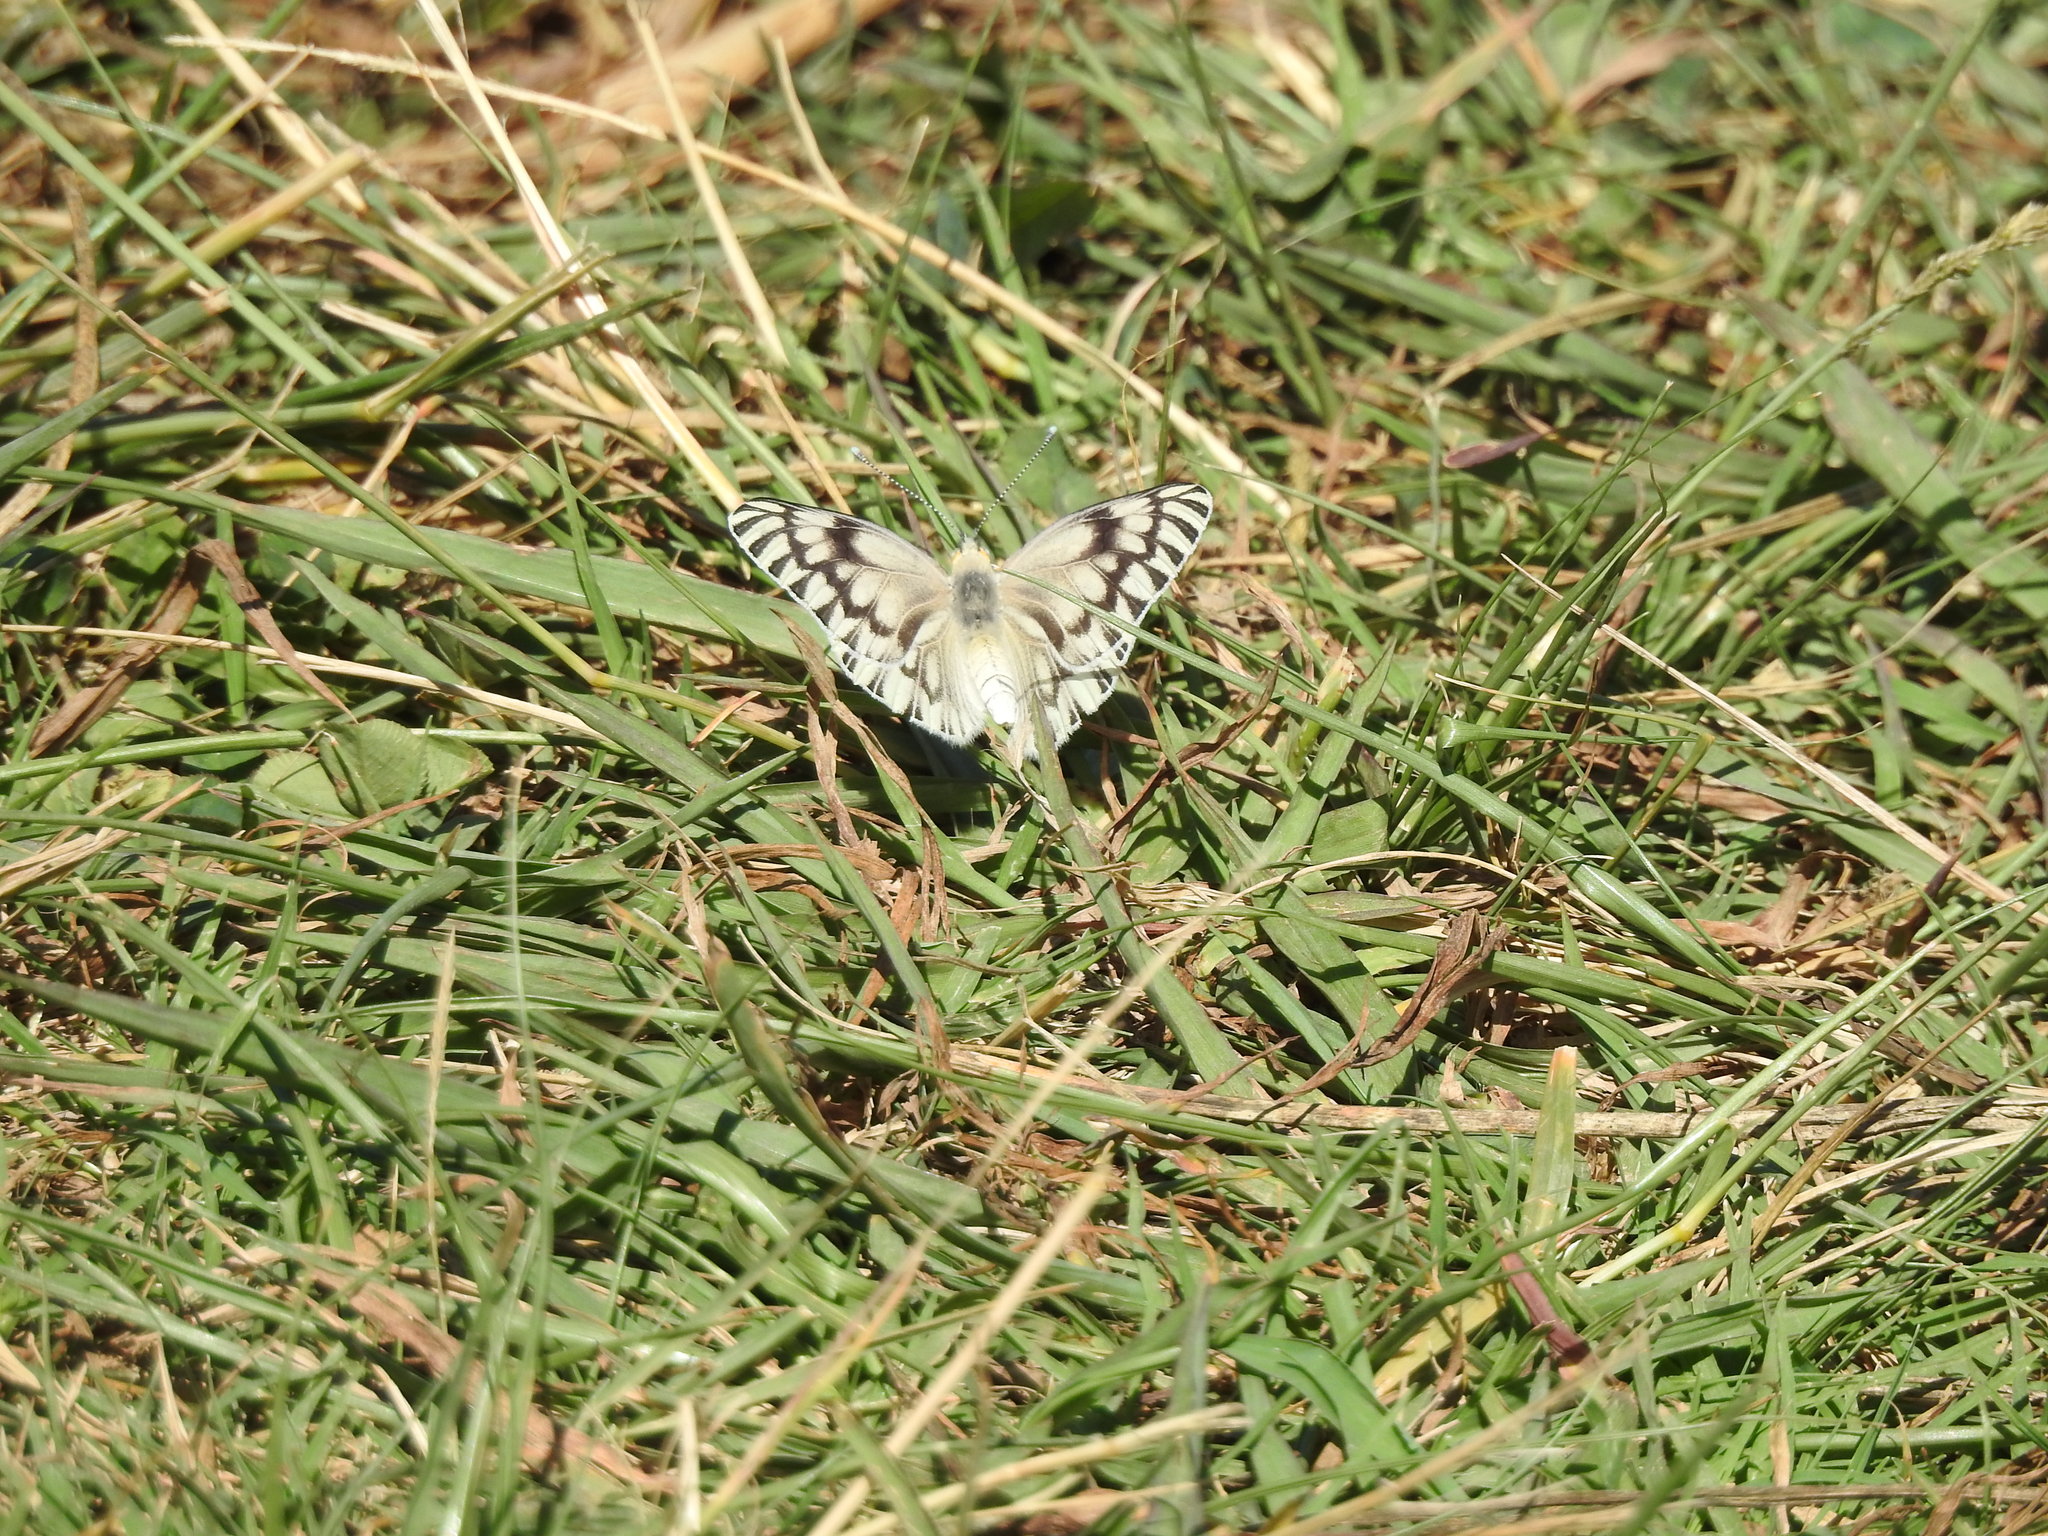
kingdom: Animalia
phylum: Arthropoda
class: Insecta
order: Lepidoptera
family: Pieridae
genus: Tatochila
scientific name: Tatochila mercedis
